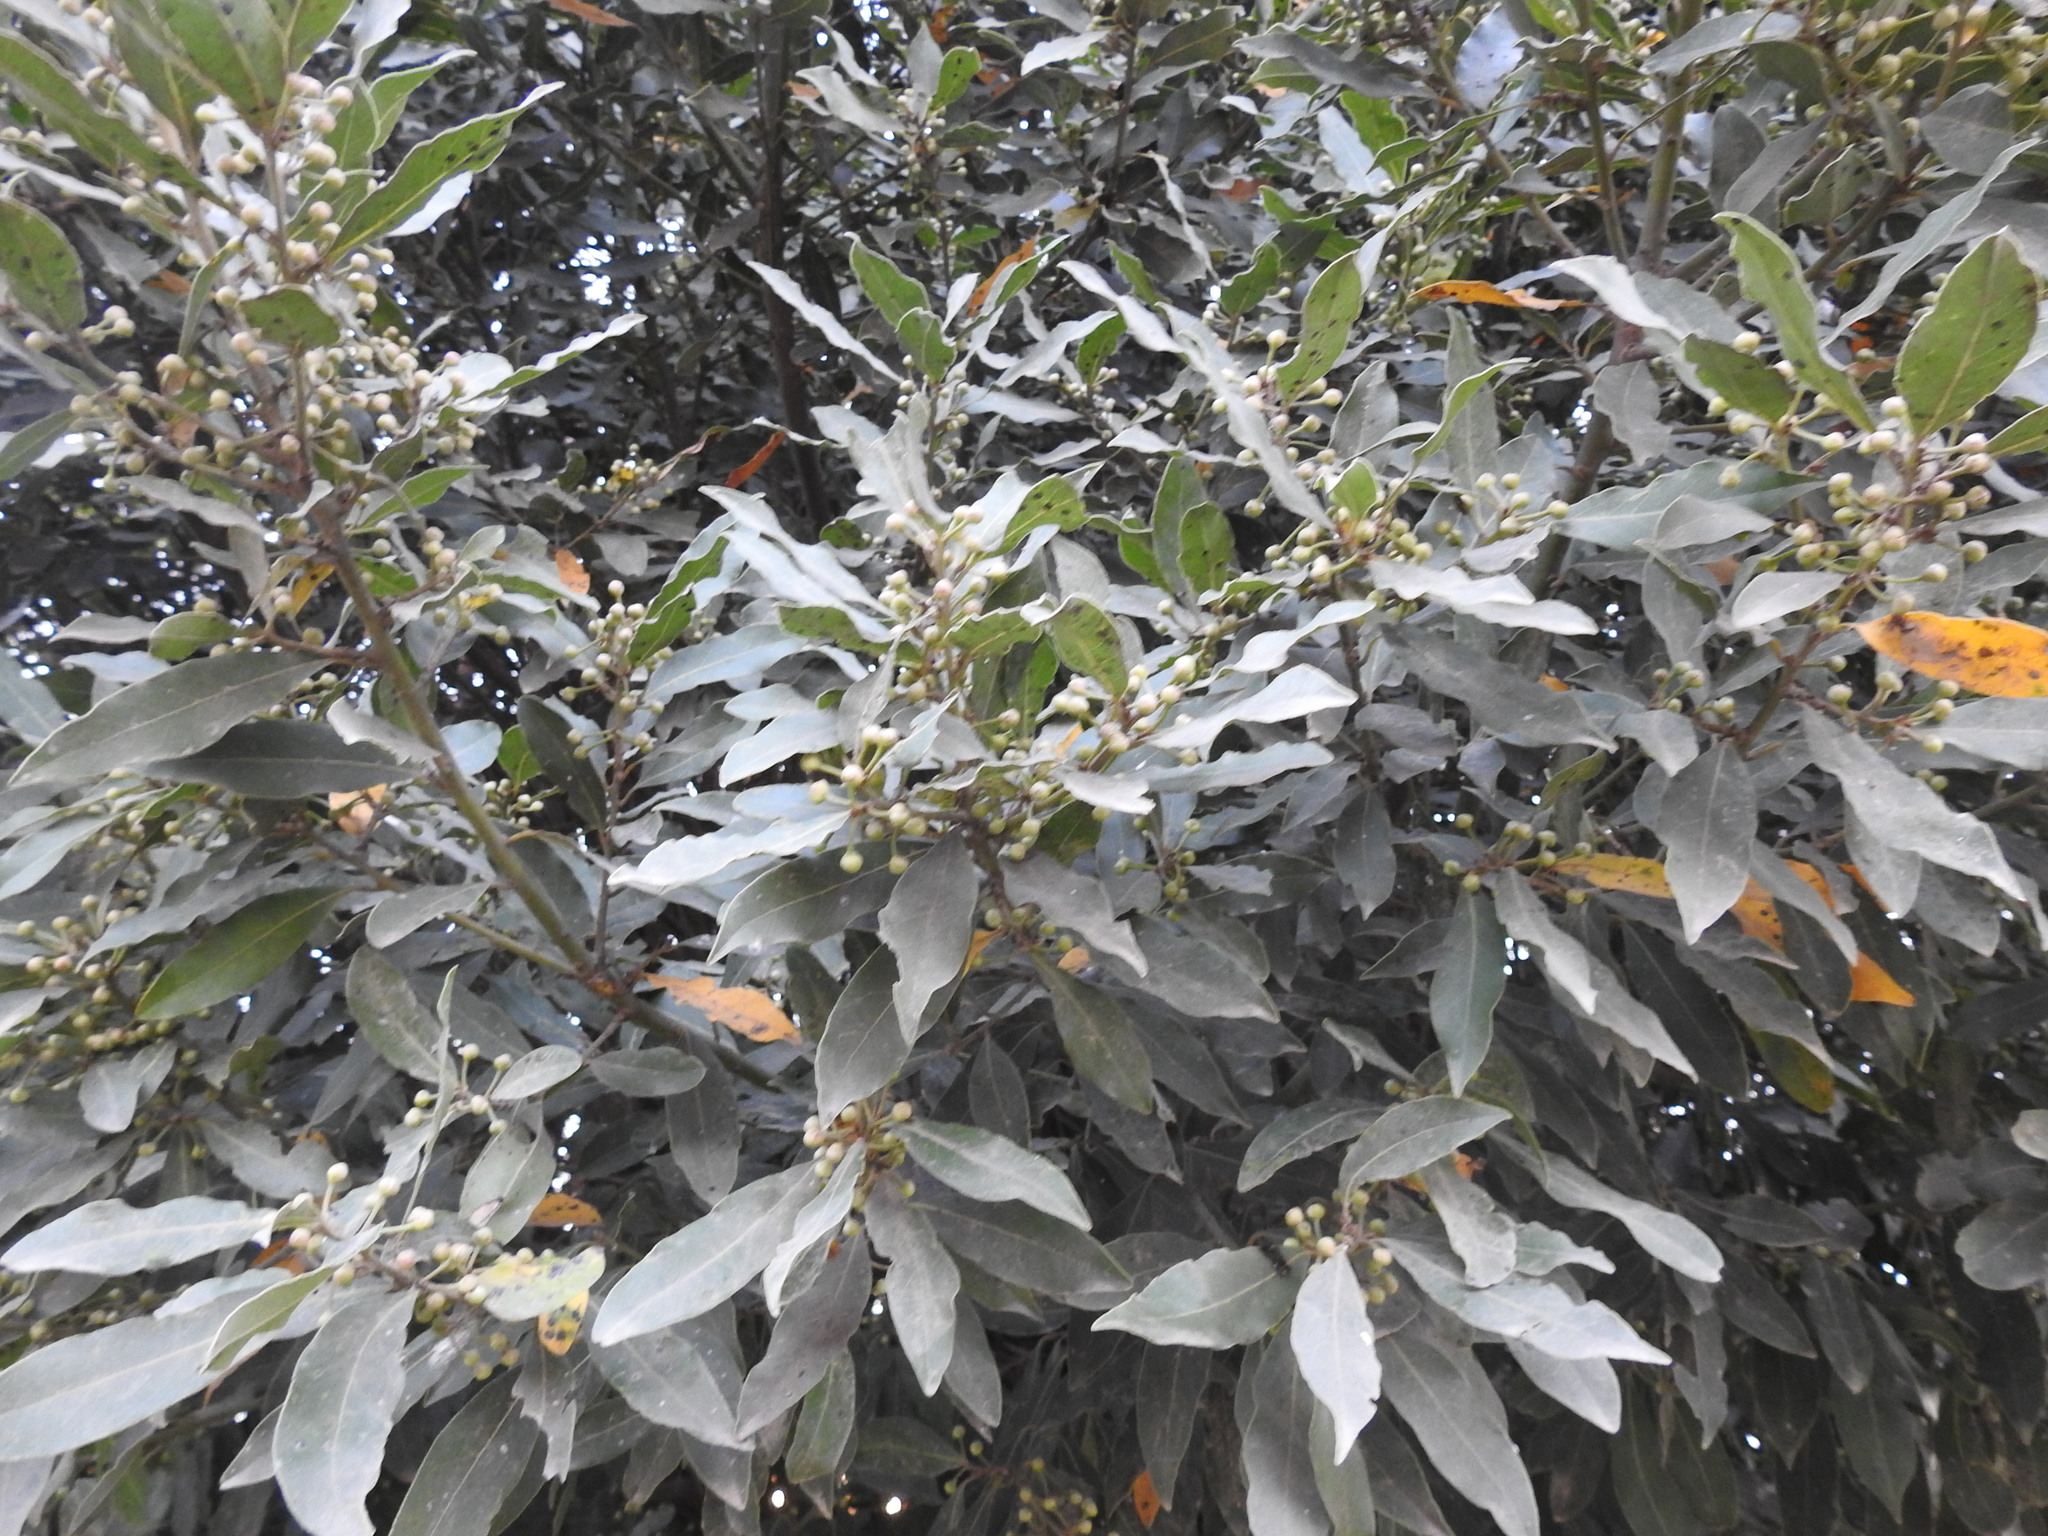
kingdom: Plantae
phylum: Tracheophyta
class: Magnoliopsida
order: Laurales
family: Lauraceae
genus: Laurus
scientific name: Laurus nobilis
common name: Bay
